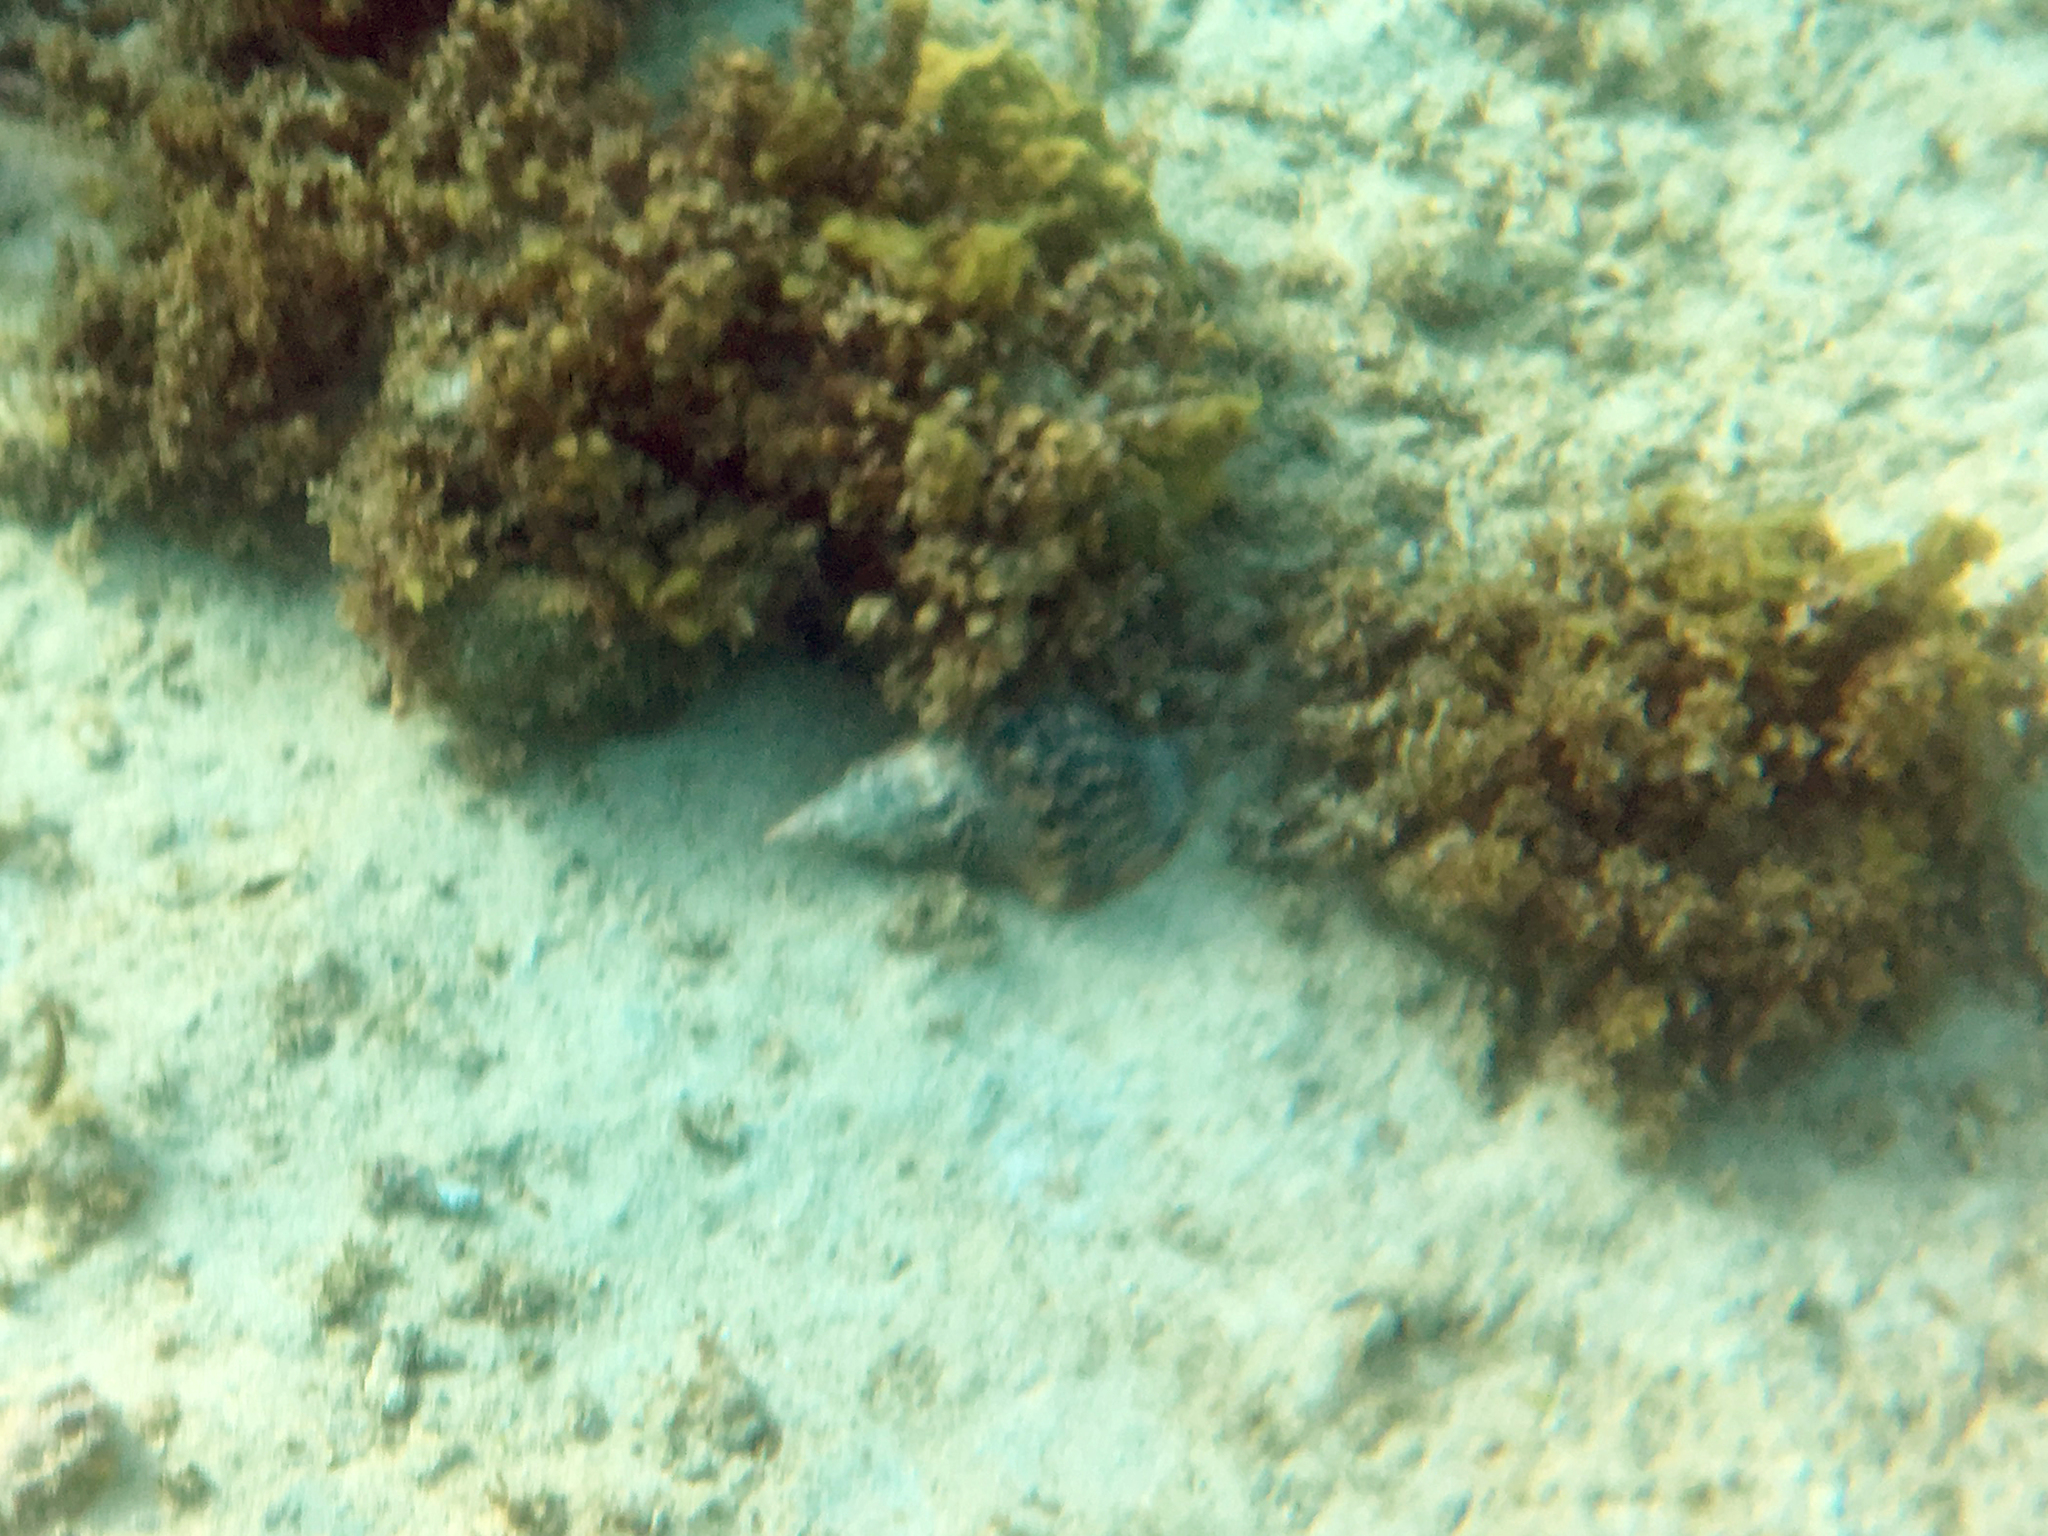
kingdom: Animalia
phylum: Mollusca
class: Gastropoda
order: Littorinimorpha
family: Charoniidae
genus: Charonia
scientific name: Charonia variegata
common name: Atlantic triton
